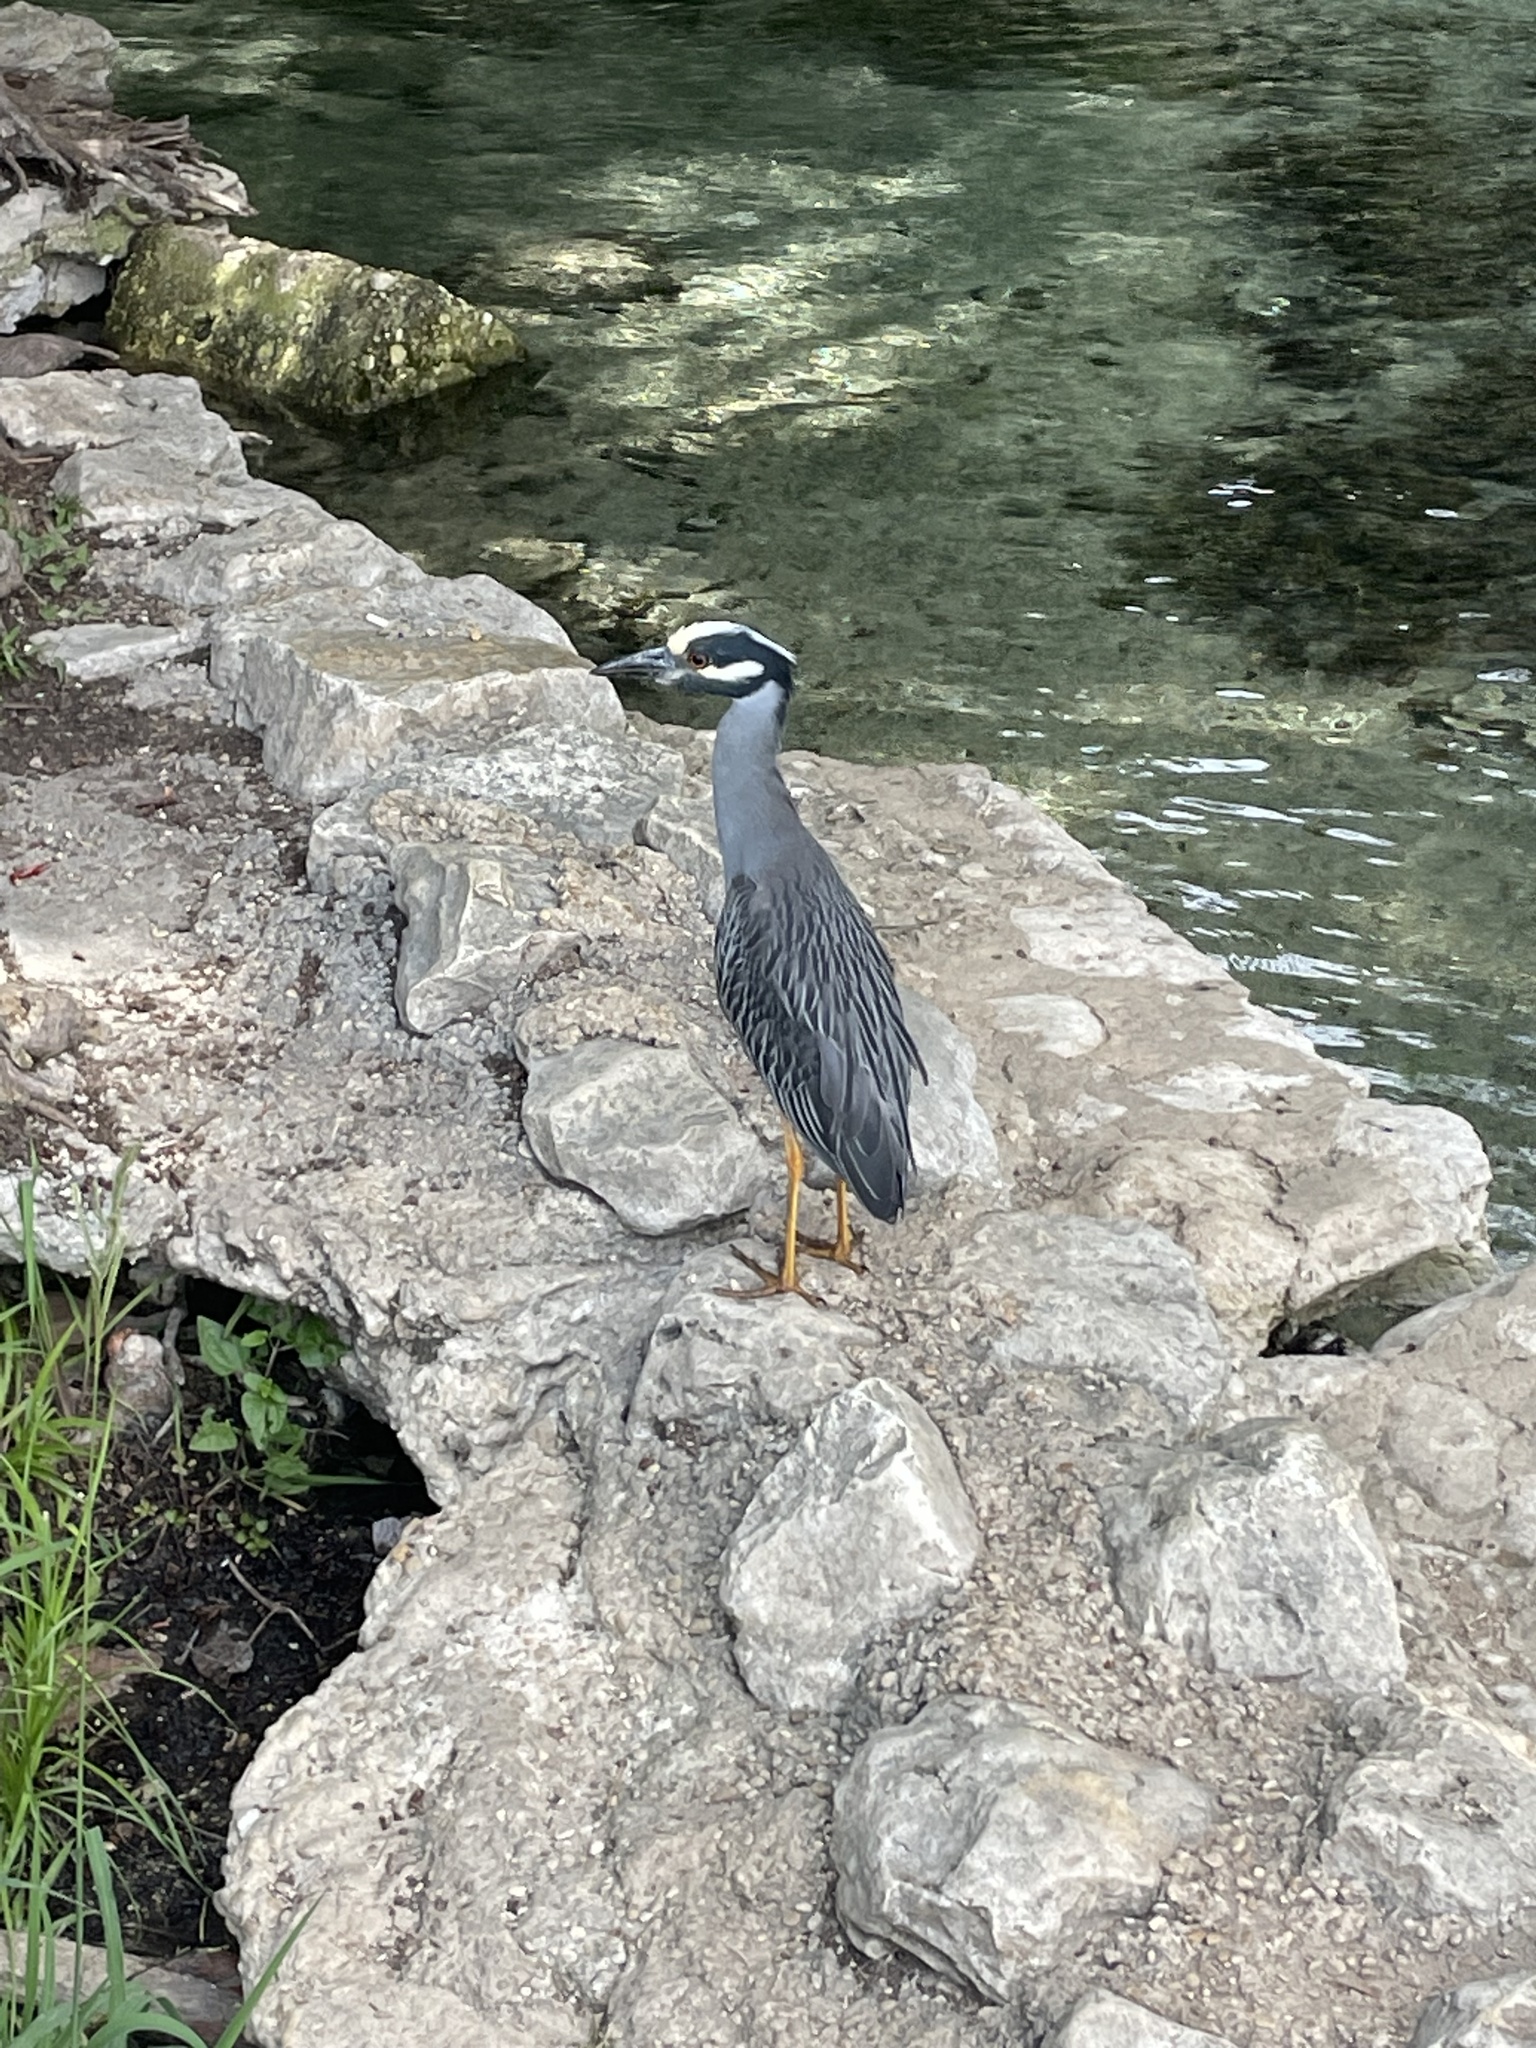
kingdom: Animalia
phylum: Chordata
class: Aves
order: Pelecaniformes
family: Ardeidae
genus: Nyctanassa
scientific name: Nyctanassa violacea
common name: Yellow-crowned night heron
